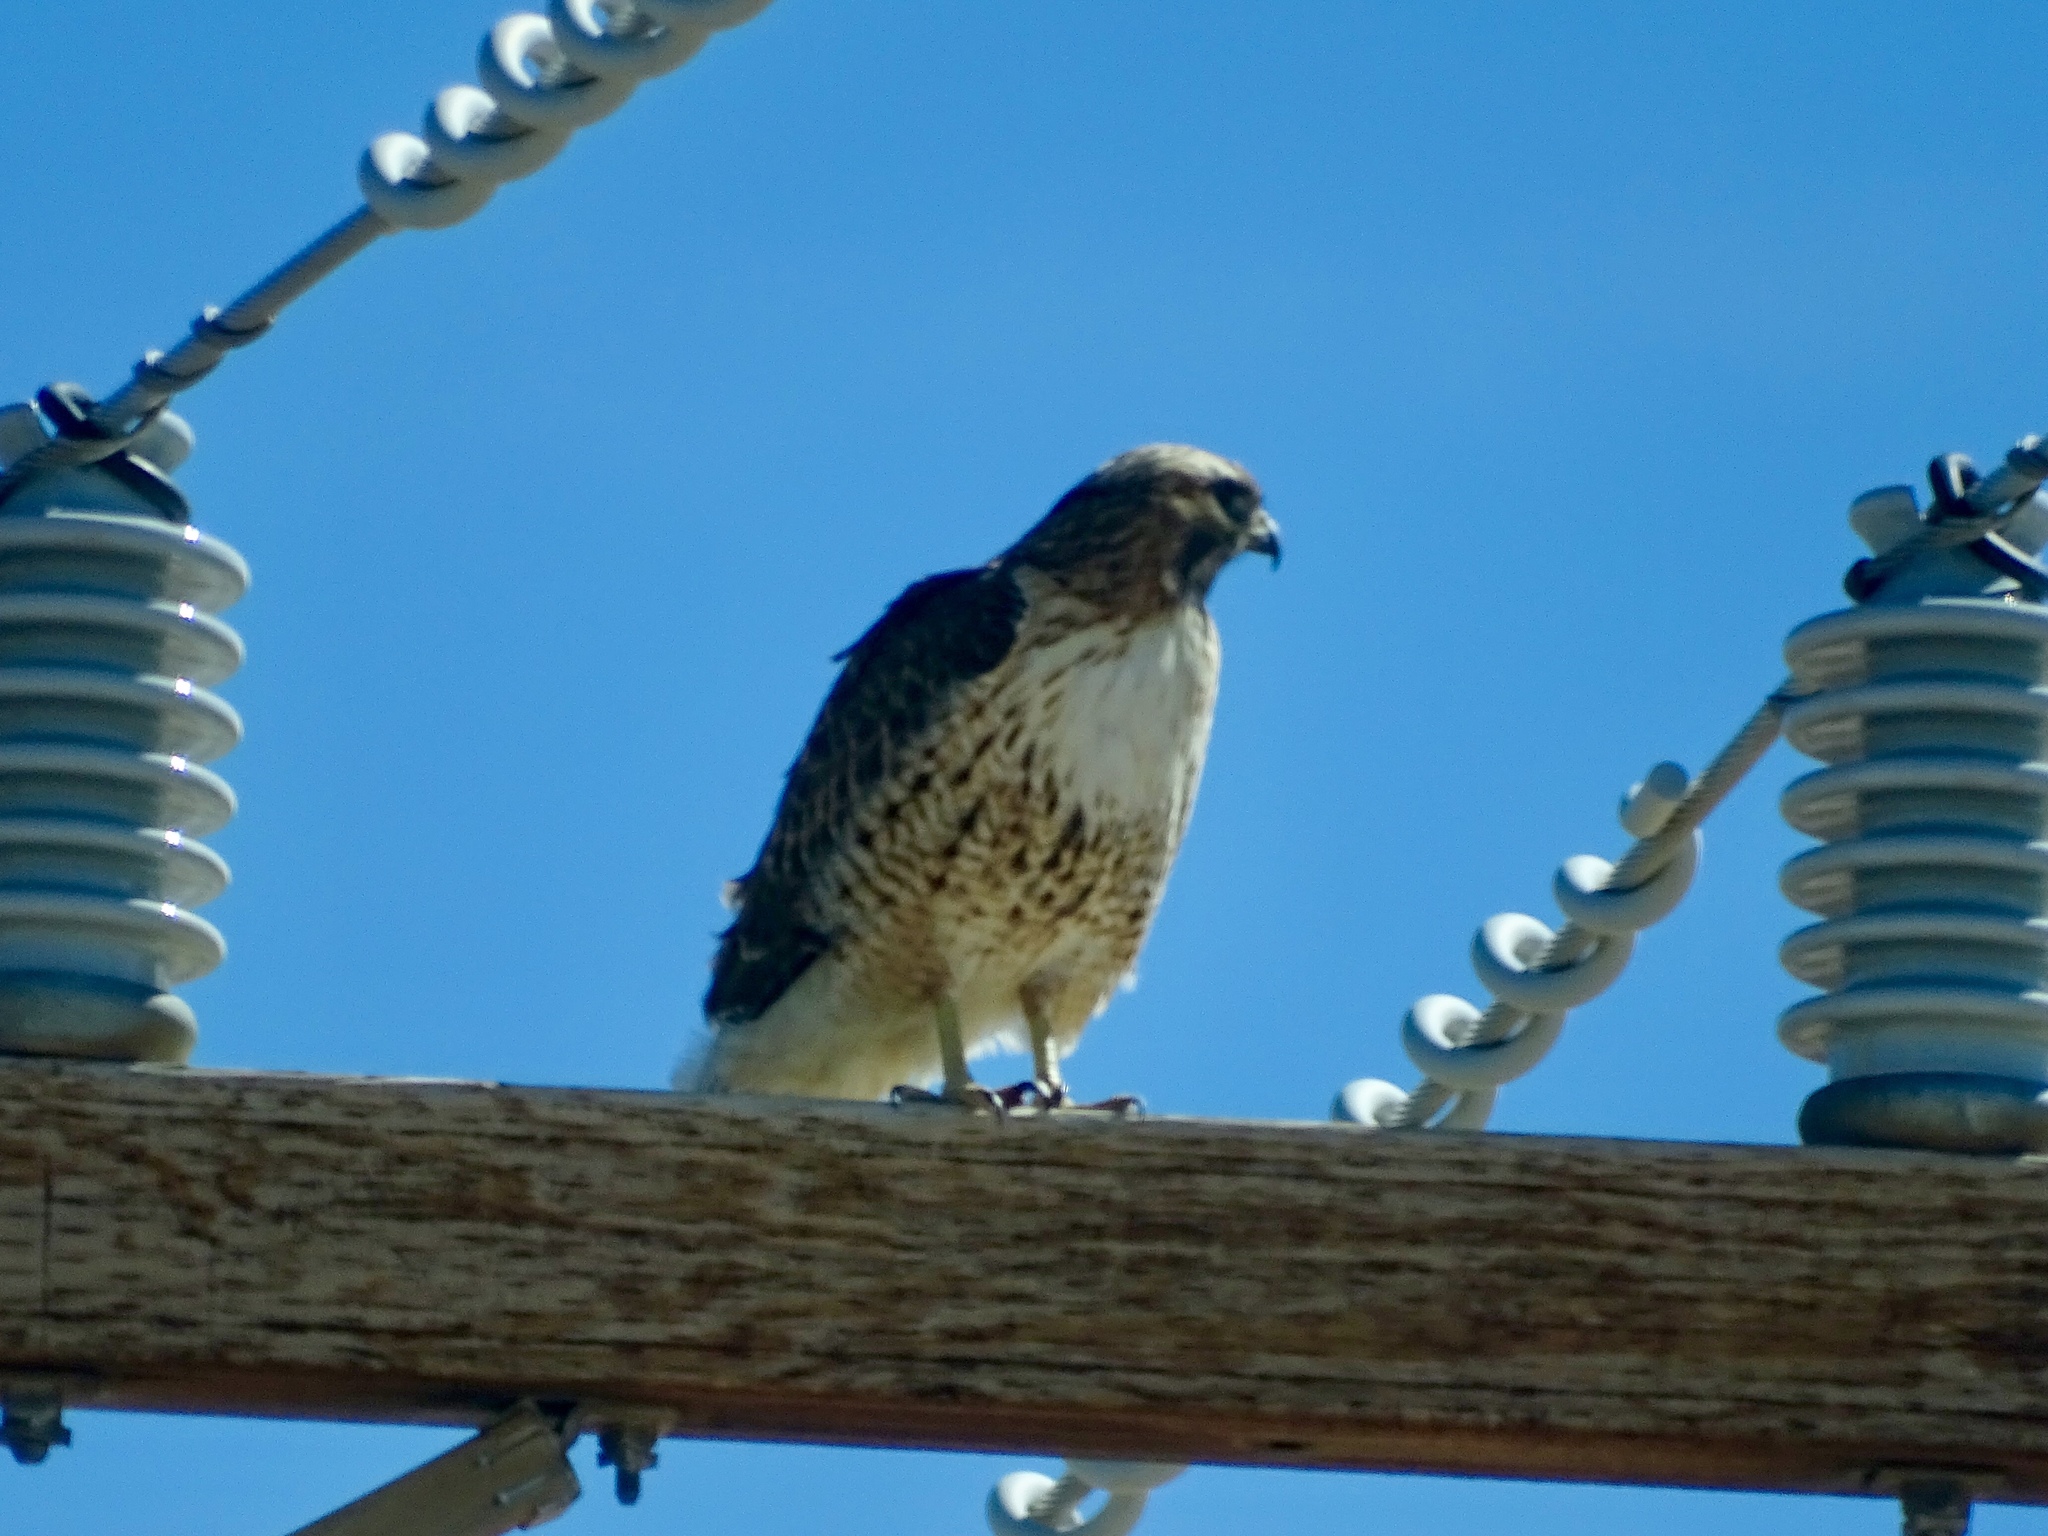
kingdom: Animalia
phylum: Chordata
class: Aves
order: Accipitriformes
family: Accipitridae
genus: Buteo
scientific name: Buteo jamaicensis
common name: Red-tailed hawk
